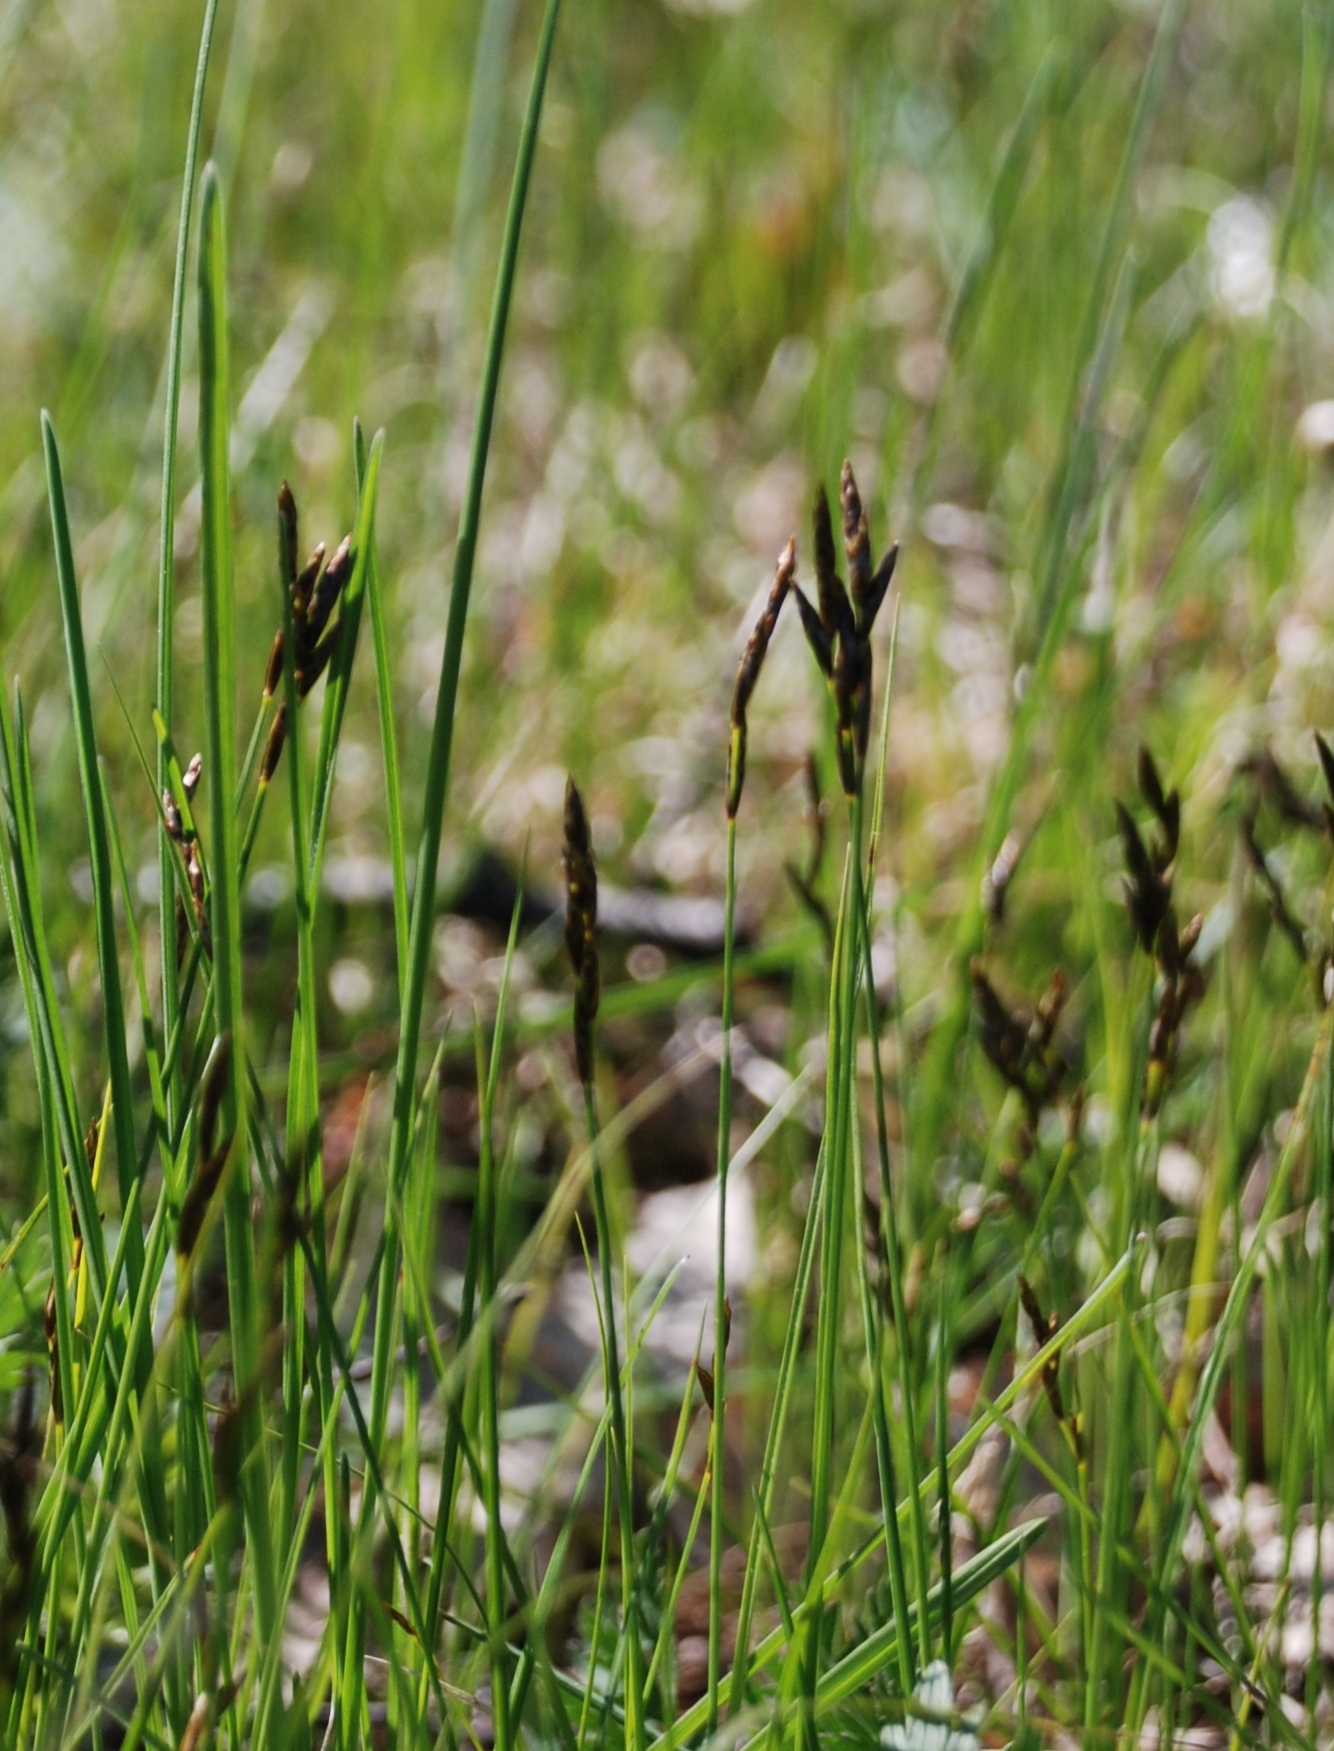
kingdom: Plantae
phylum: Tracheophyta
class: Liliopsida
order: Poales
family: Cyperaceae
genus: Carex
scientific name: Carex praecox
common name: Early sedge
